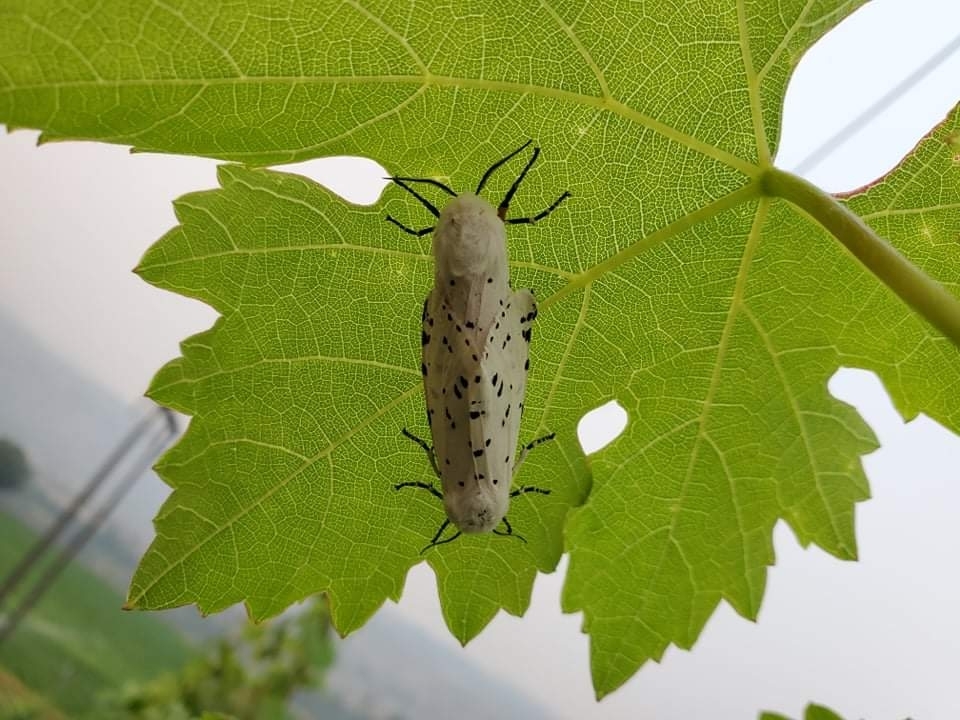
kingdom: Animalia
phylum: Arthropoda
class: Insecta
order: Lepidoptera
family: Erebidae
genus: Estigmene
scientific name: Estigmene acrea
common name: Salt marsh moth
